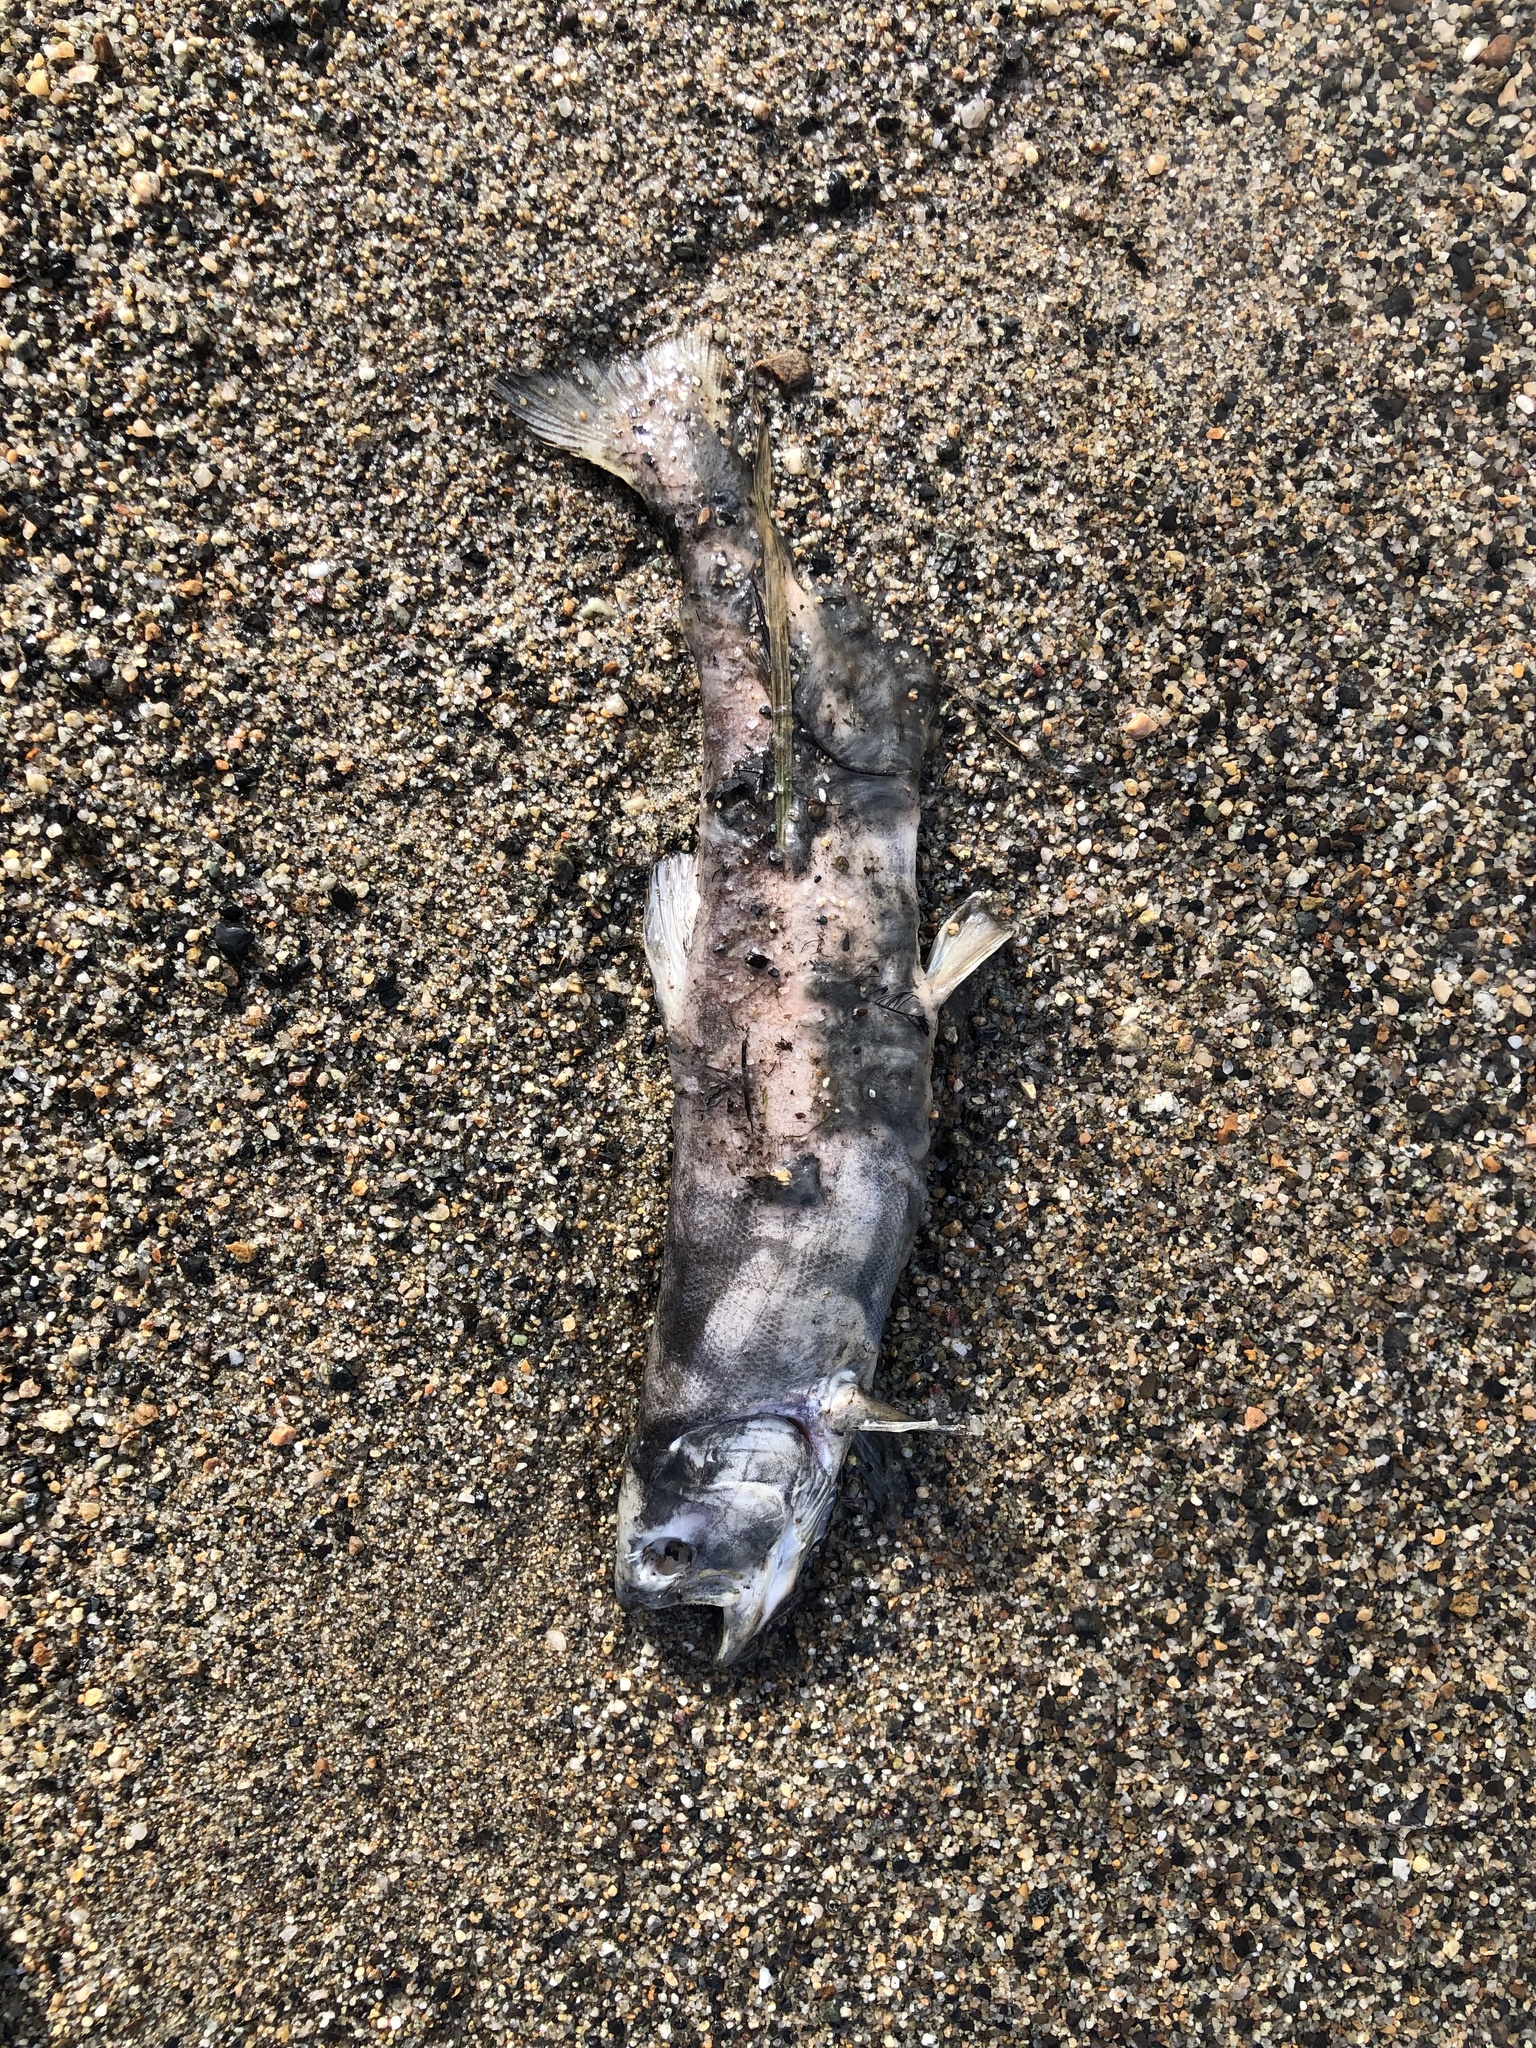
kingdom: Animalia
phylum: Chordata
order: Salmoniformes
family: Salmonidae
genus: Oncorhynchus
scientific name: Oncorhynchus nerka
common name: Sockeye salmon
